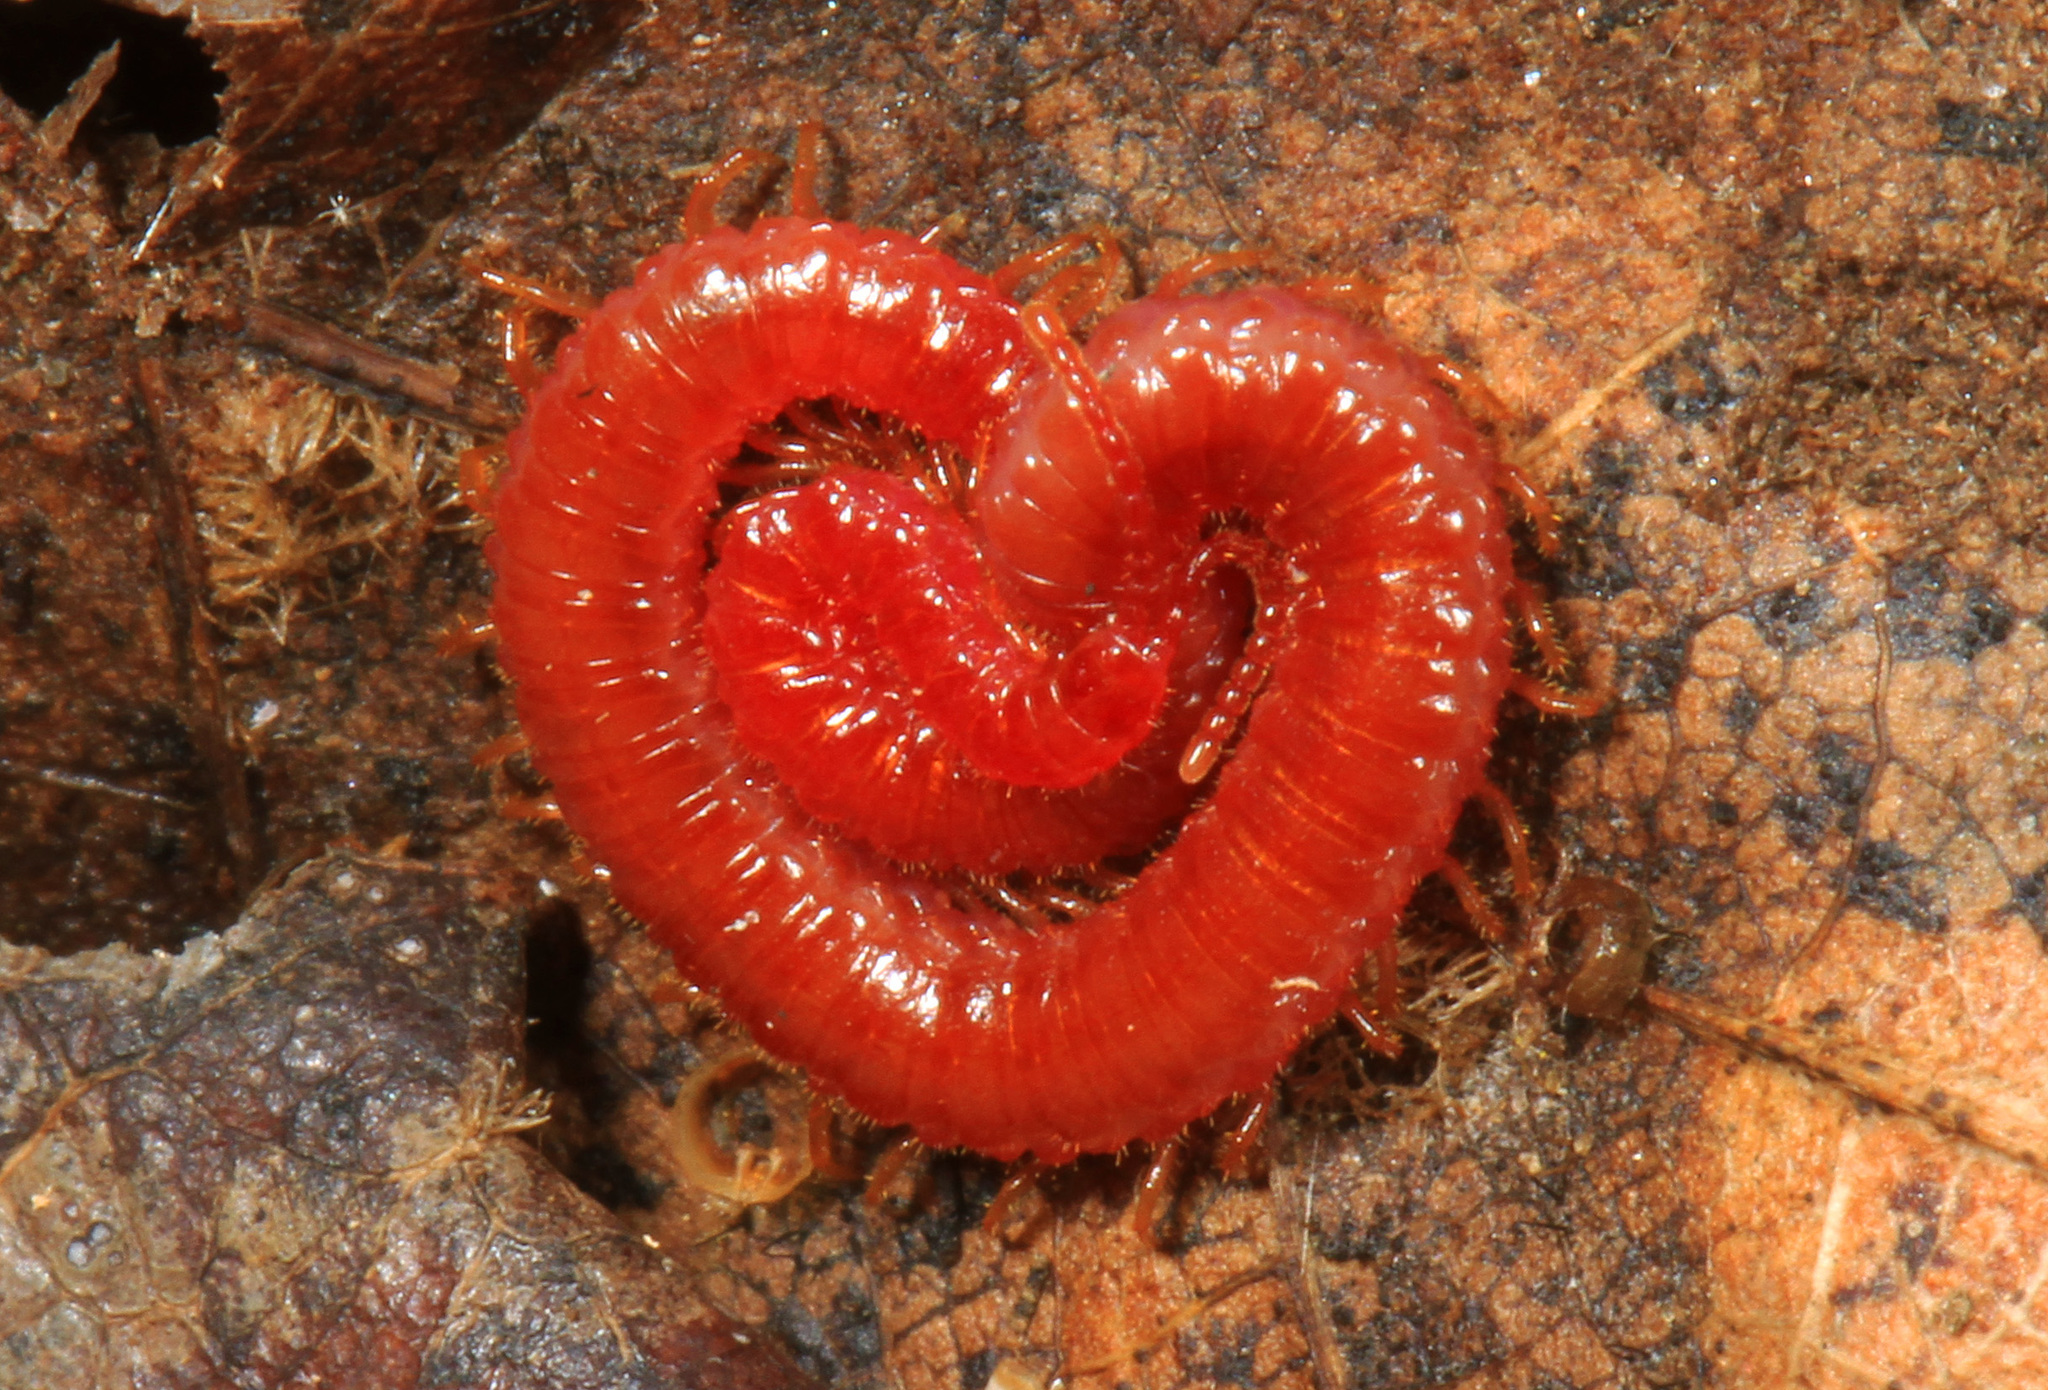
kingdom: Animalia
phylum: Arthropoda
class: Chilopoda
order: Geophilomorpha
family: Linotaeniidae
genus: Strigamia
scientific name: Strigamia bothriopus
